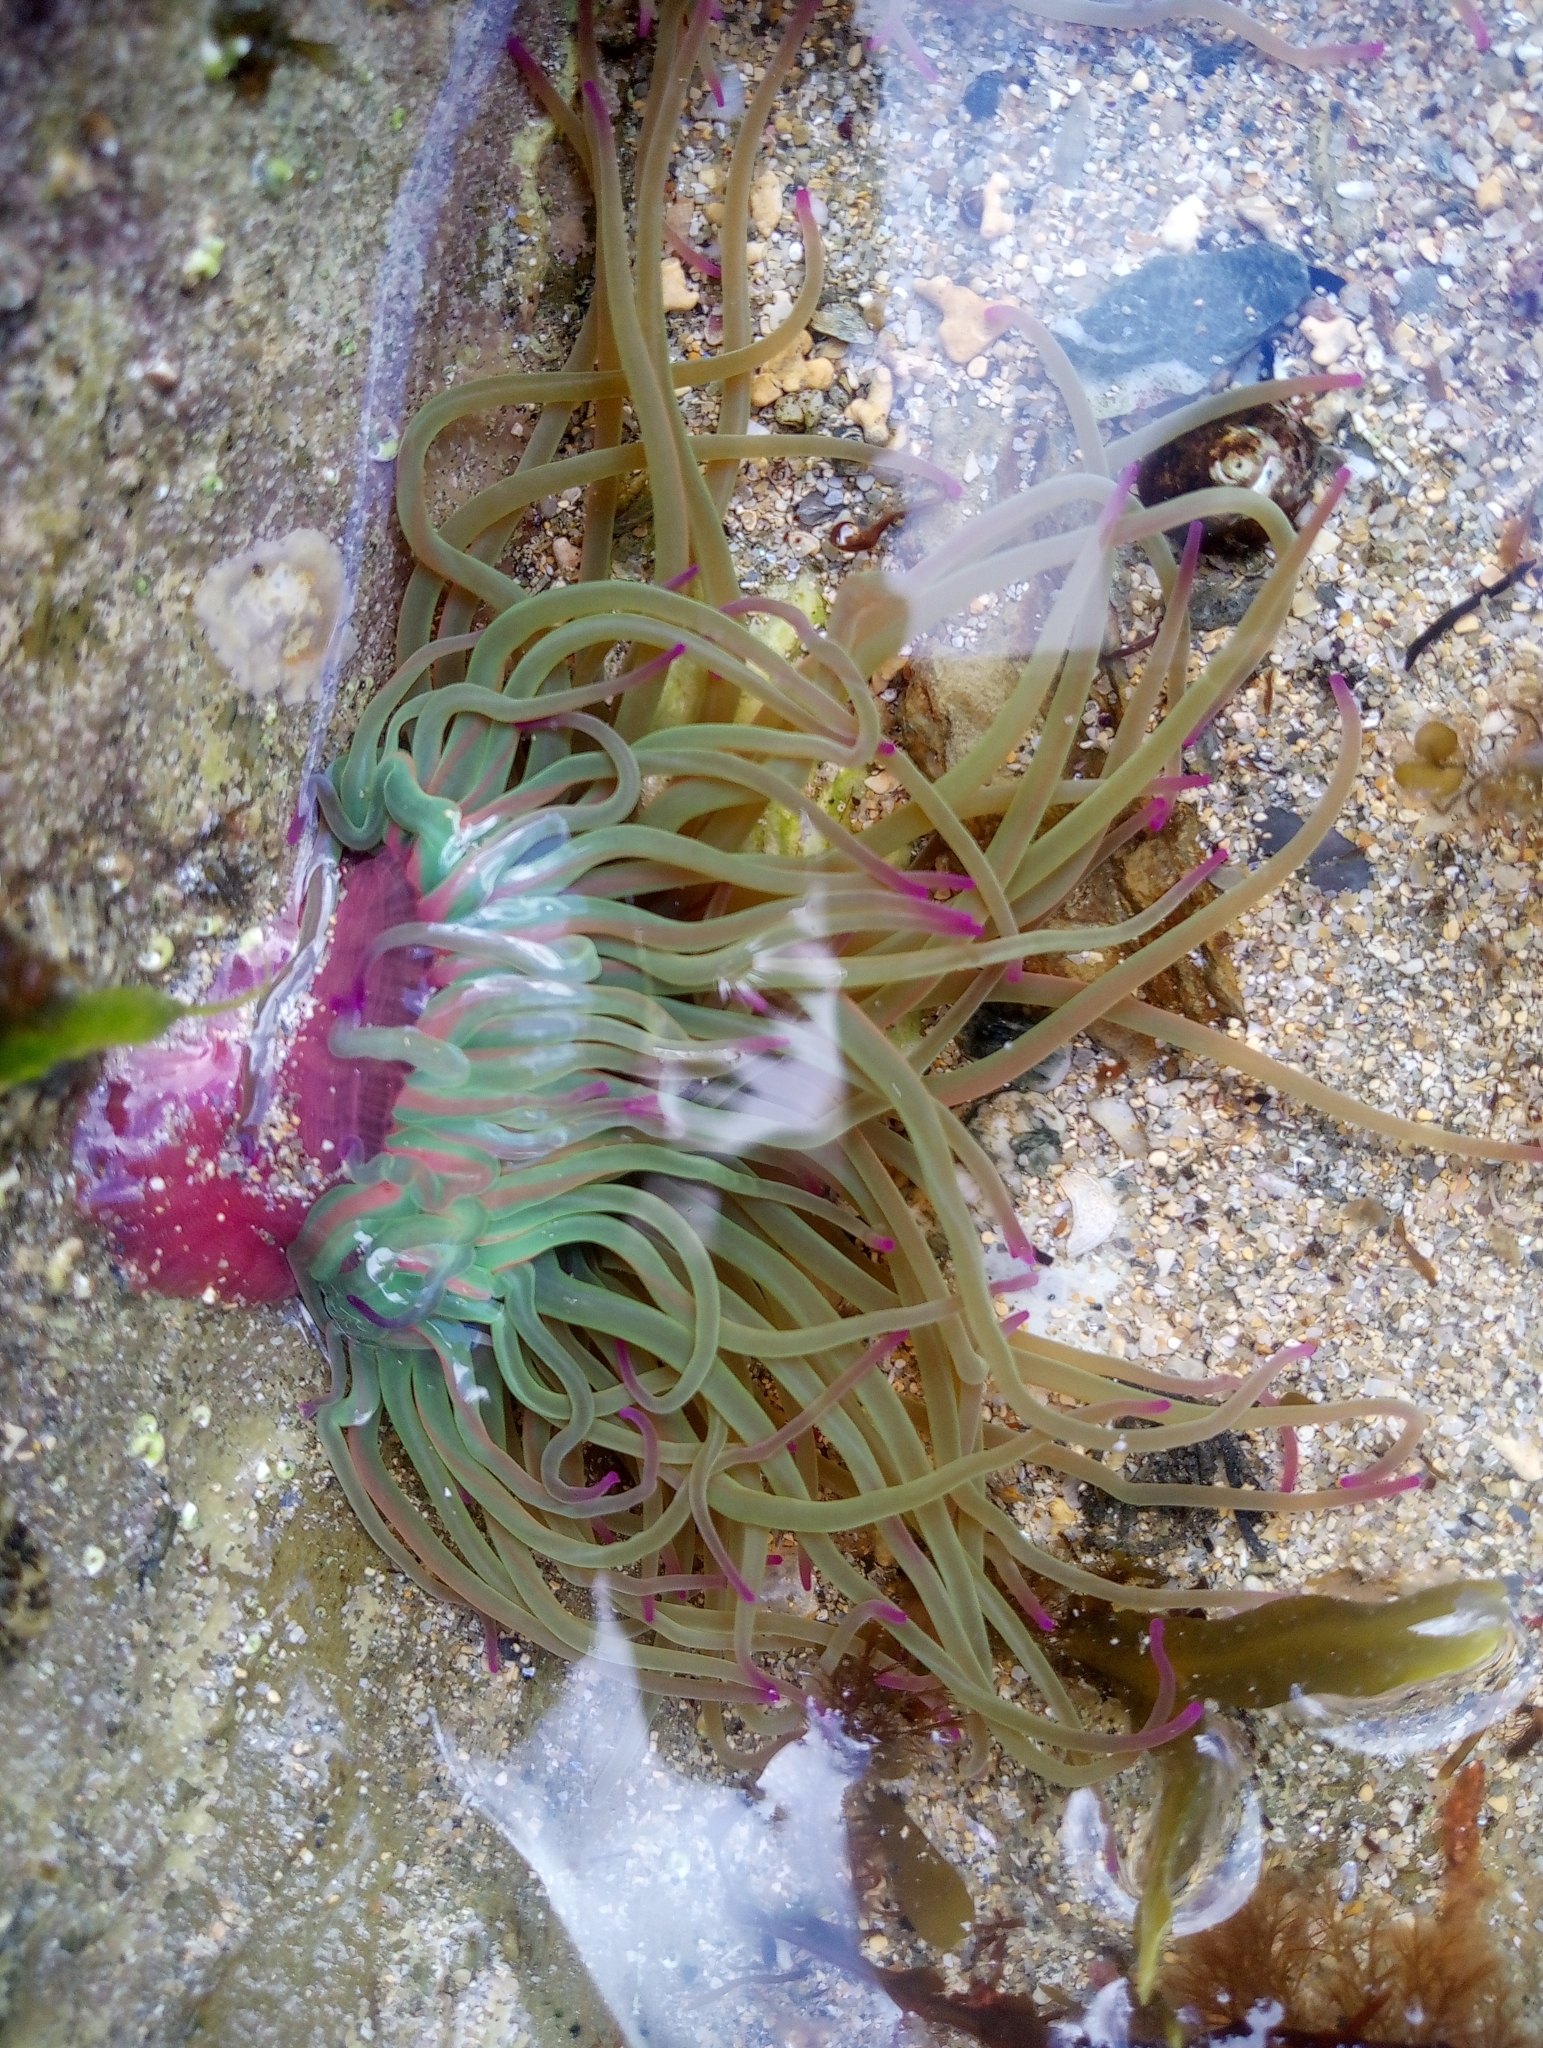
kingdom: Animalia
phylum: Cnidaria
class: Anthozoa
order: Actiniaria
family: Actiniidae
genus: Anemonia
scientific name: Anemonia viridis
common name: Snakelocks anemone
